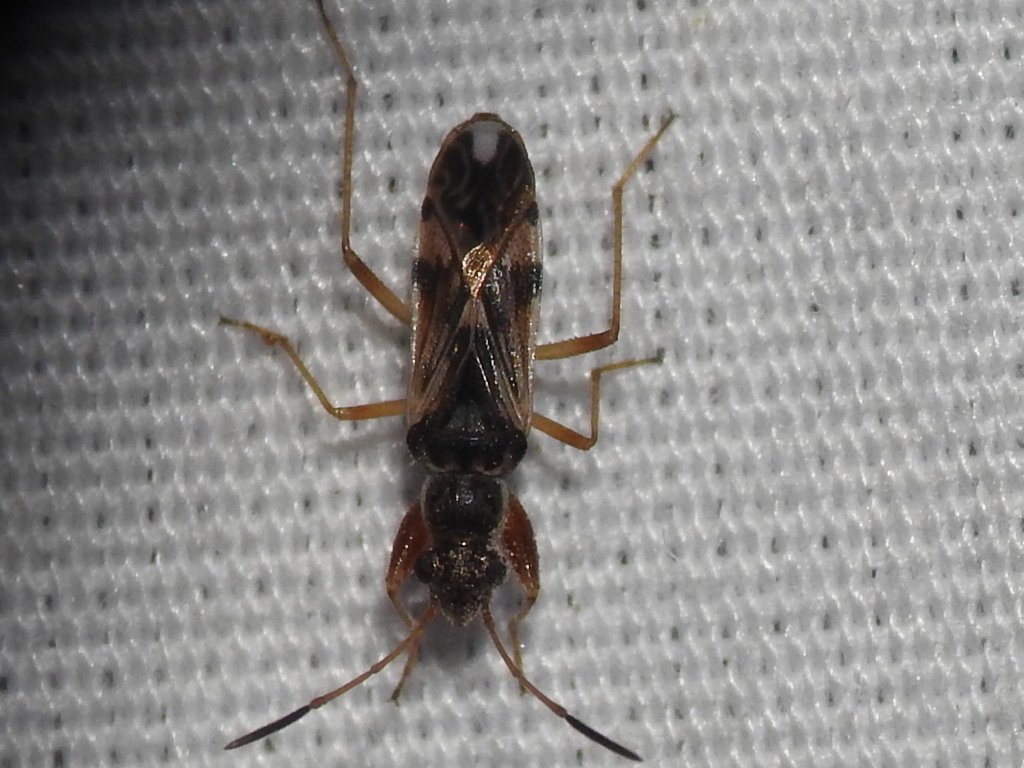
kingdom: Animalia
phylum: Arthropoda
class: Insecta
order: Hemiptera
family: Rhyparochromidae
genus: Neopamera
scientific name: Neopamera bilobata
